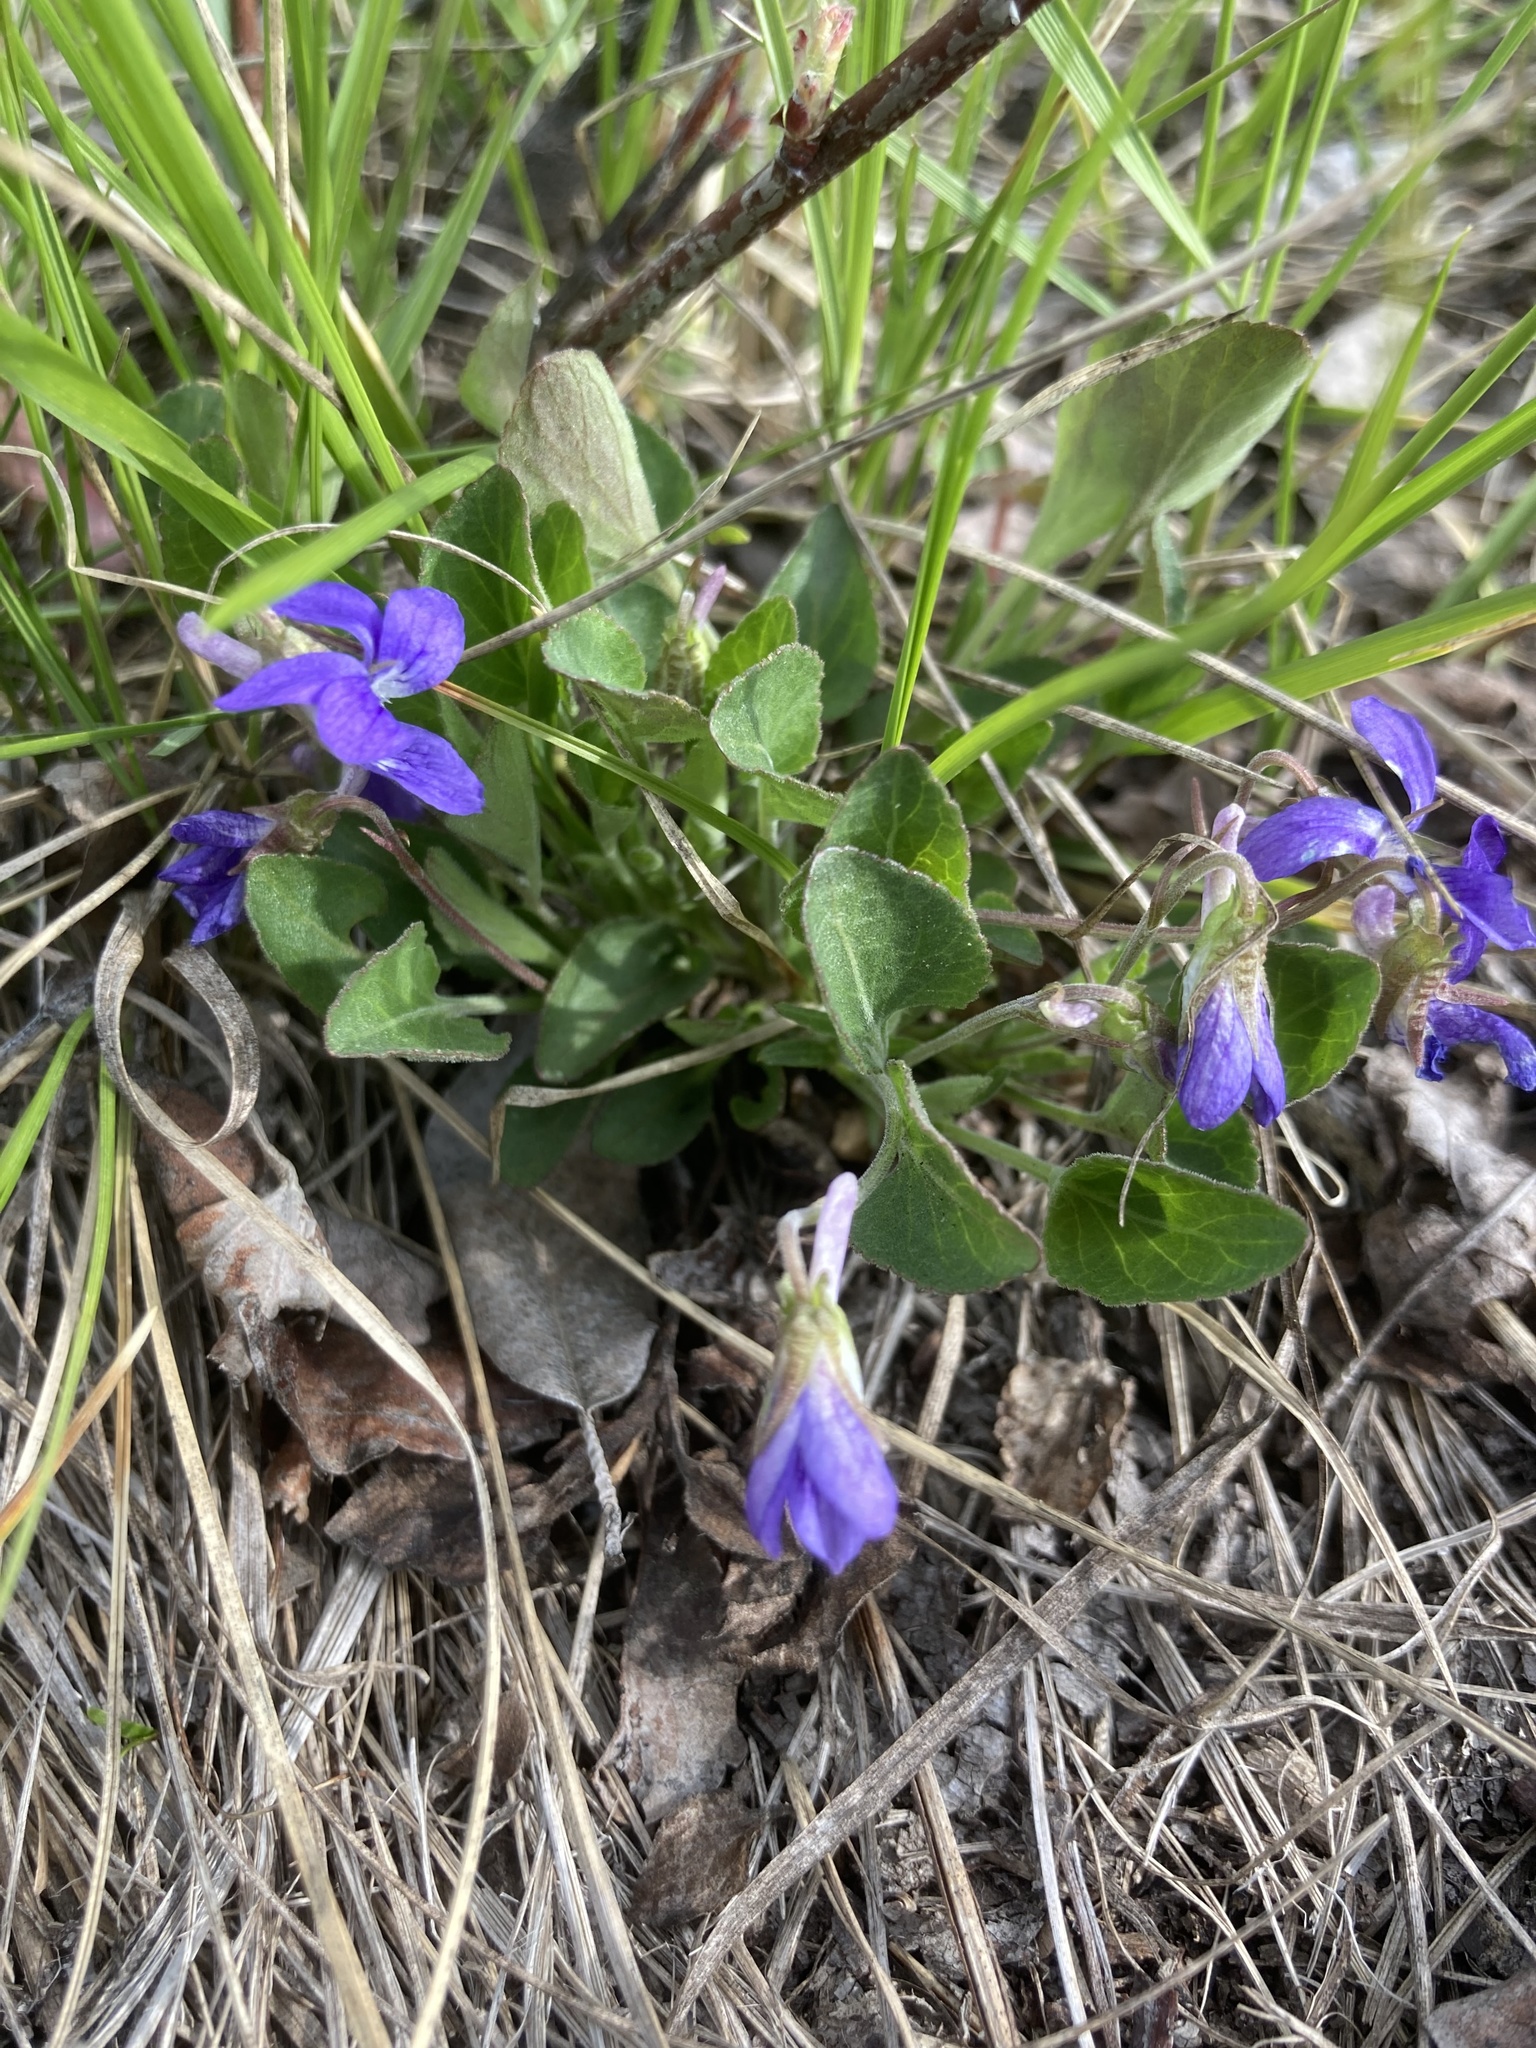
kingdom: Plantae
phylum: Tracheophyta
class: Magnoliopsida
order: Malpighiales
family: Violaceae
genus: Viola
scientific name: Viola adunca
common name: Sand violet
